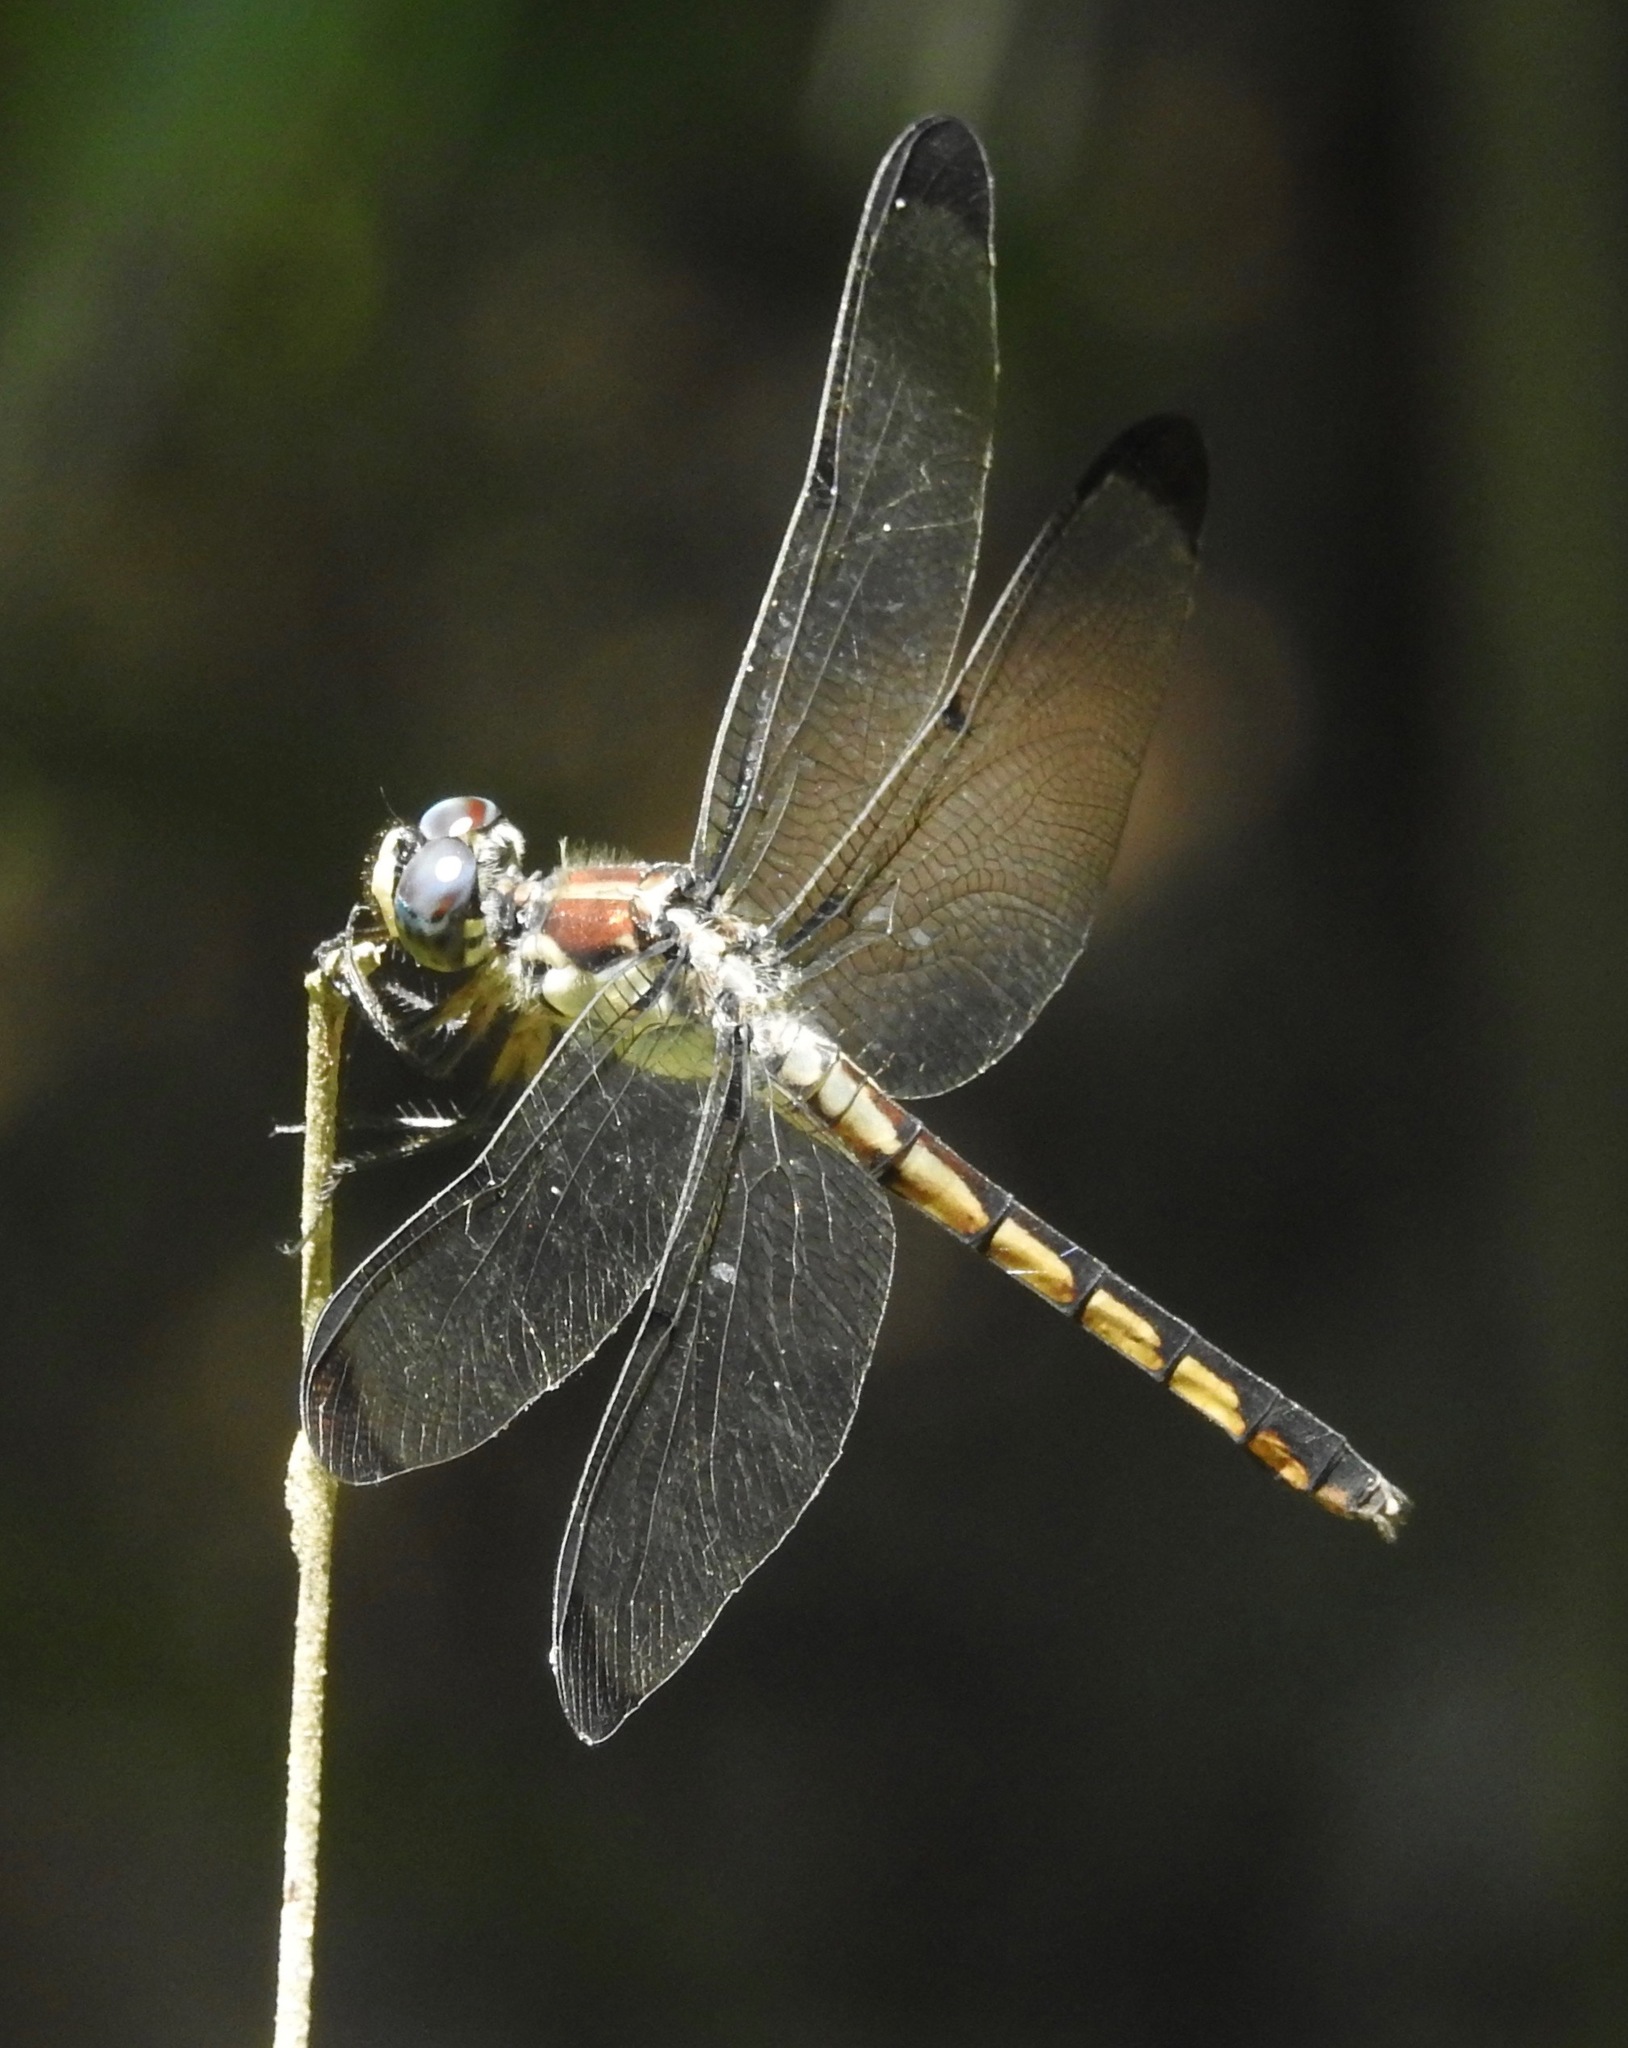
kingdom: Animalia
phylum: Arthropoda
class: Insecta
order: Odonata
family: Libellulidae
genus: Libellula
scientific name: Libellula vibrans
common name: Great blue skimmer
